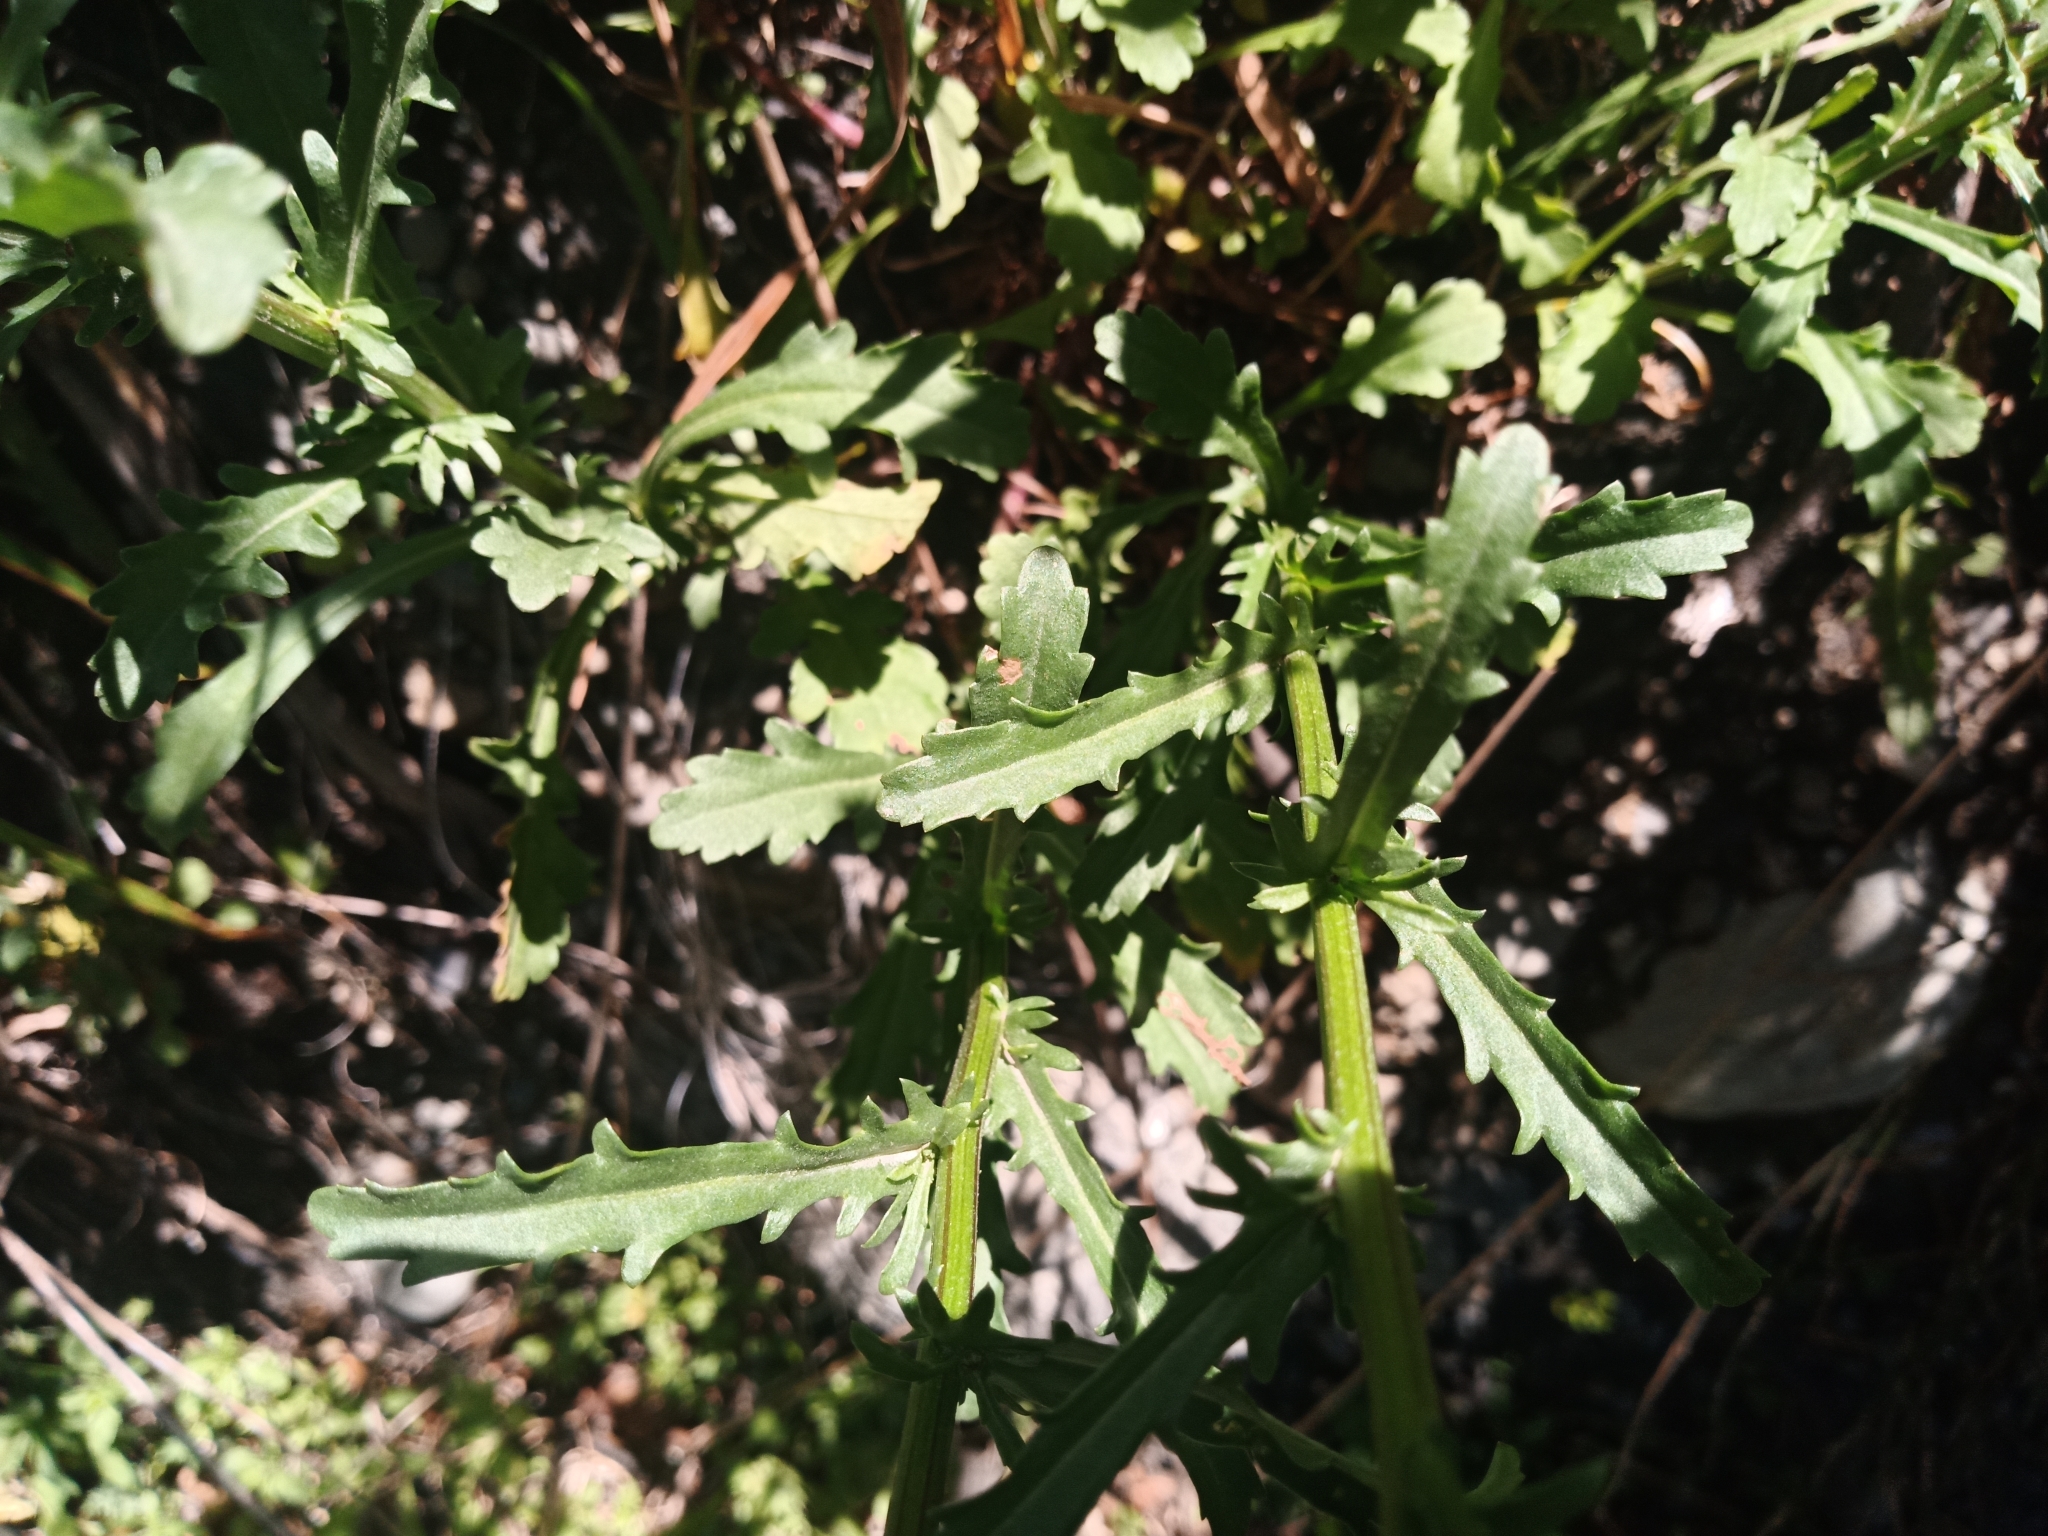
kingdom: Plantae
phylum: Tracheophyta
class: Magnoliopsida
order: Asterales
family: Asteraceae
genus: Leucanthemum
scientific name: Leucanthemum vulgare
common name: Oxeye daisy
